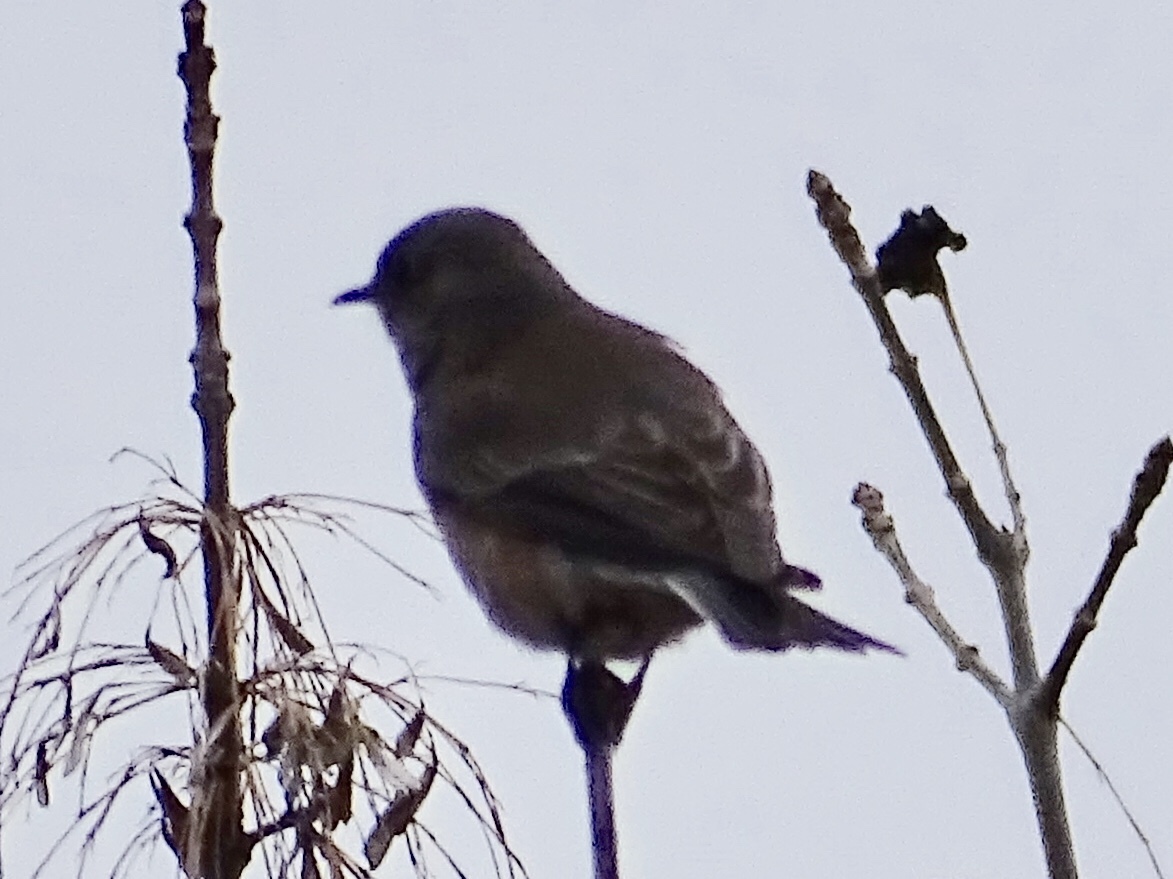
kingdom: Animalia
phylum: Chordata
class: Aves
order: Passeriformes
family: Turdidae
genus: Sialia
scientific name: Sialia mexicana
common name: Western bluebird
